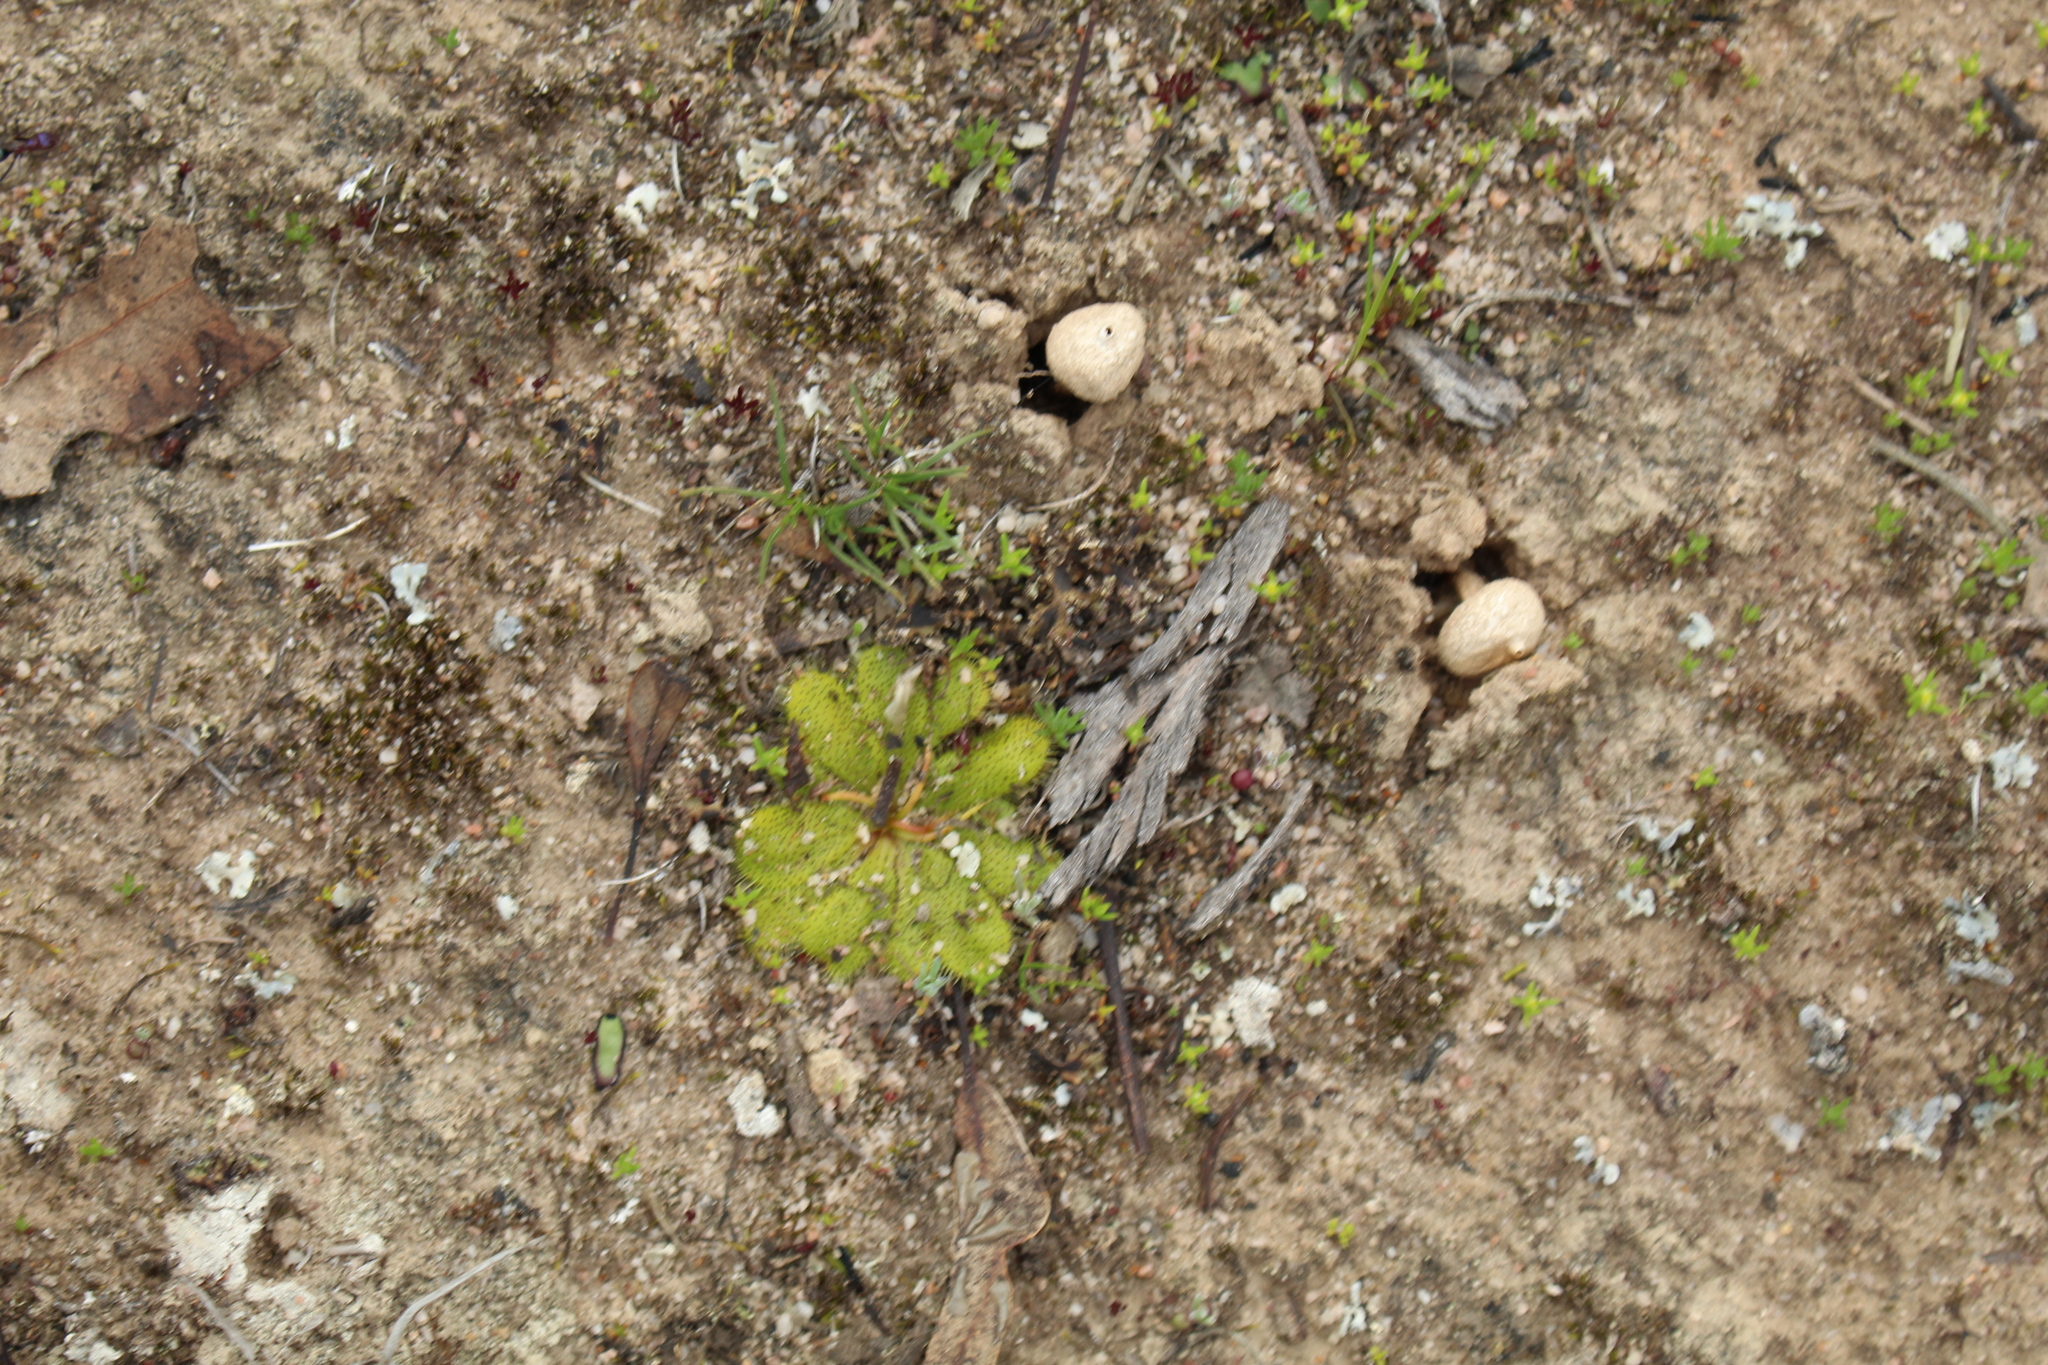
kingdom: Plantae
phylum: Tracheophyta
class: Magnoliopsida
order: Caryophyllales
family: Droseraceae
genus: Drosera
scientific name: Drosera bulbosa
